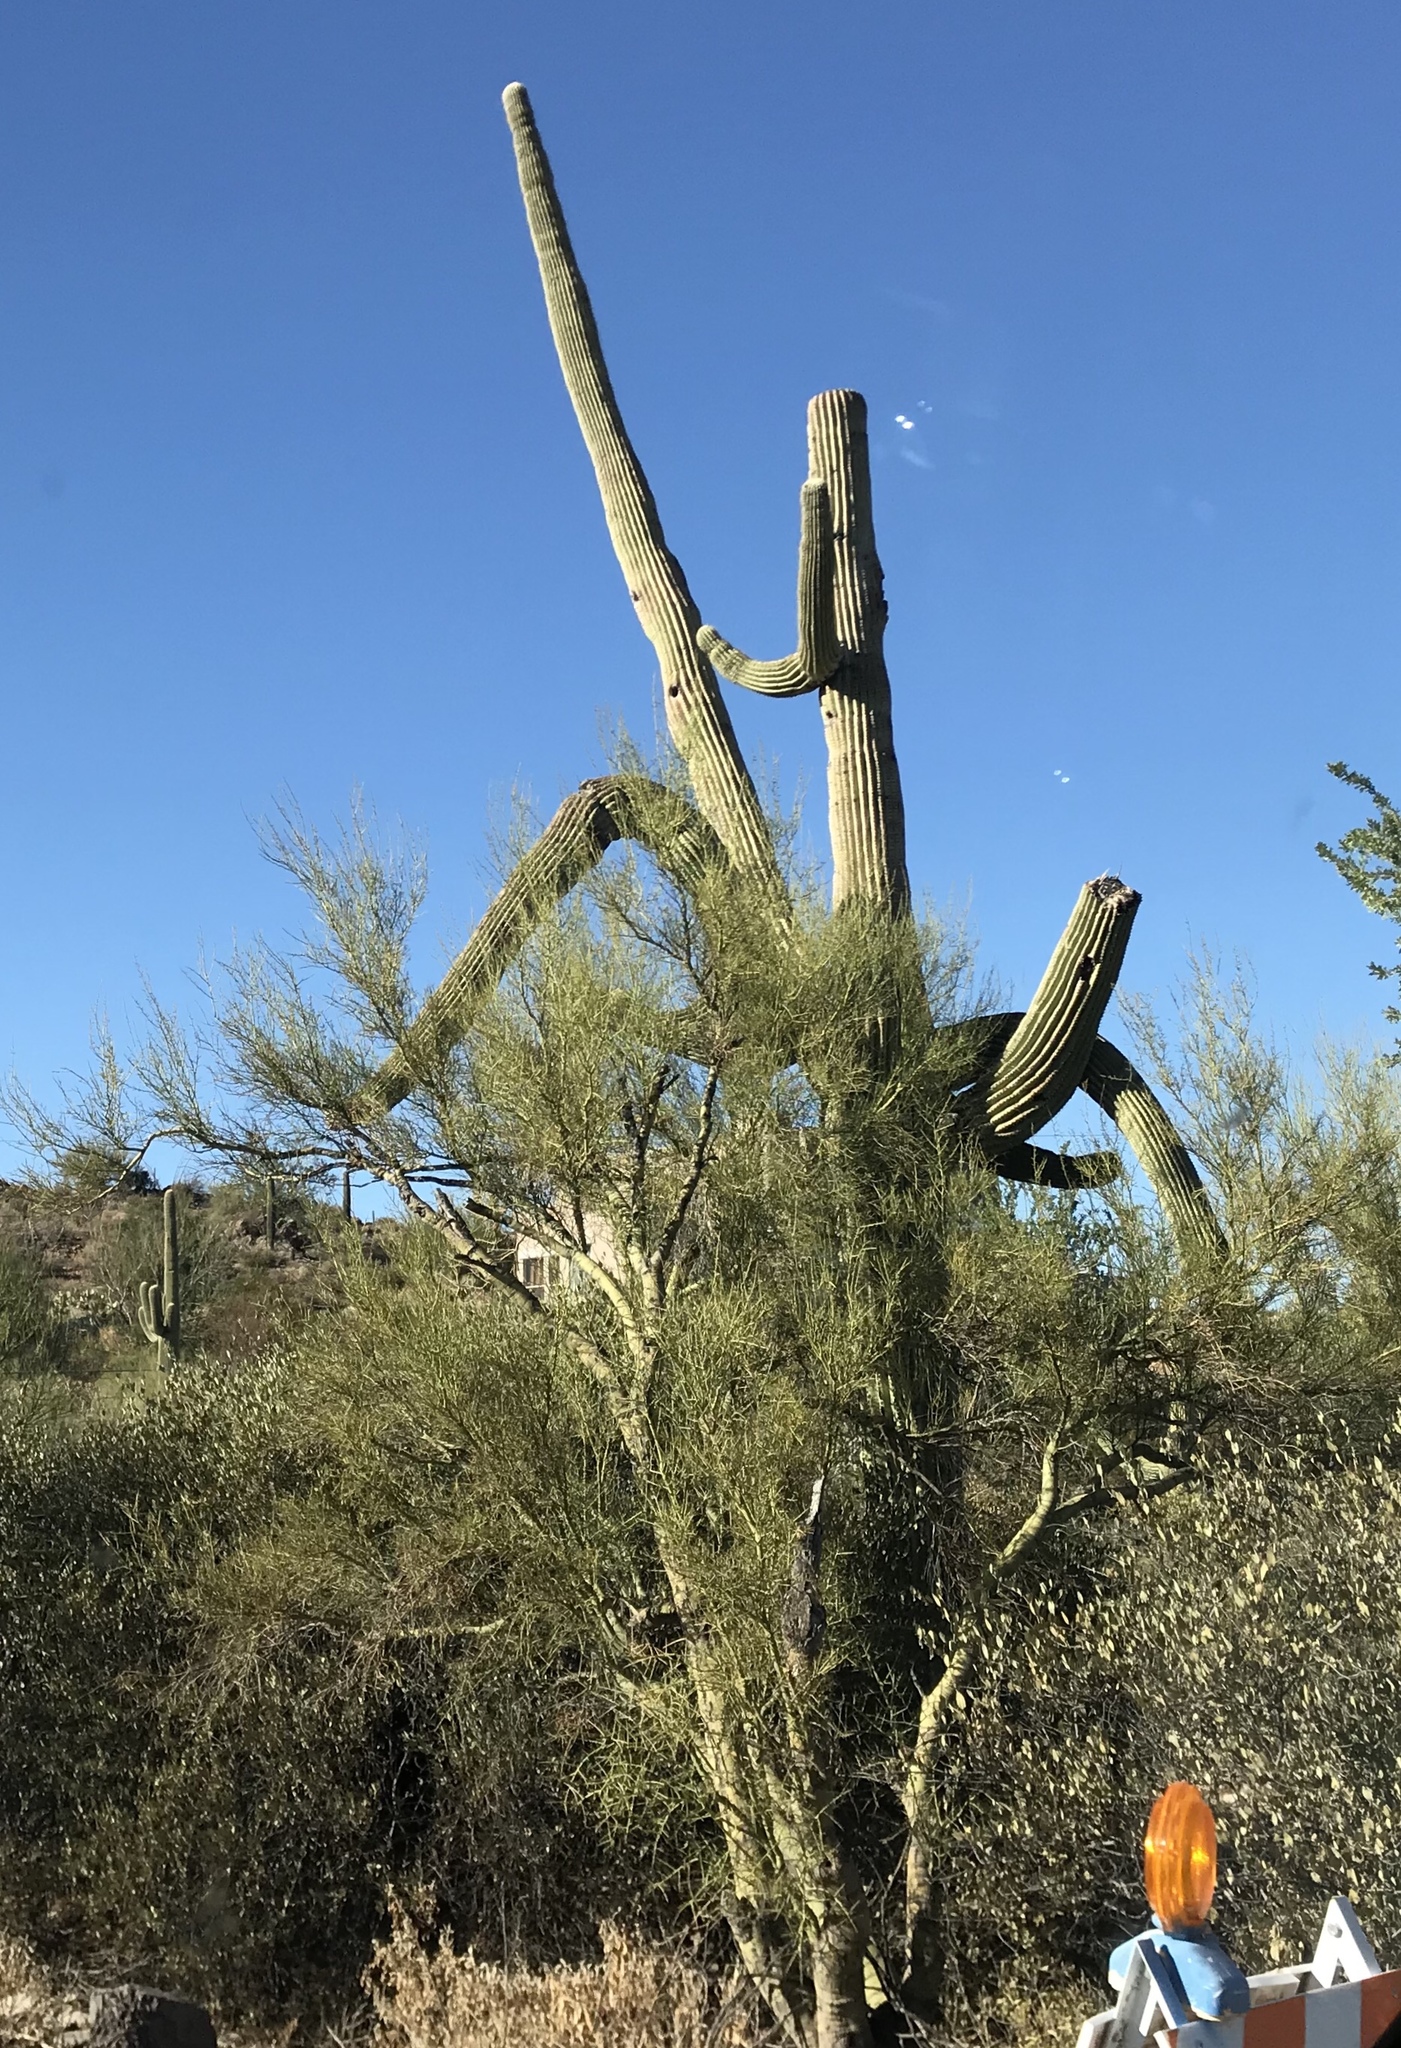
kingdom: Plantae
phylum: Tracheophyta
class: Magnoliopsida
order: Caryophyllales
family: Cactaceae
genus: Carnegiea
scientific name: Carnegiea gigantea
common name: Saguaro
